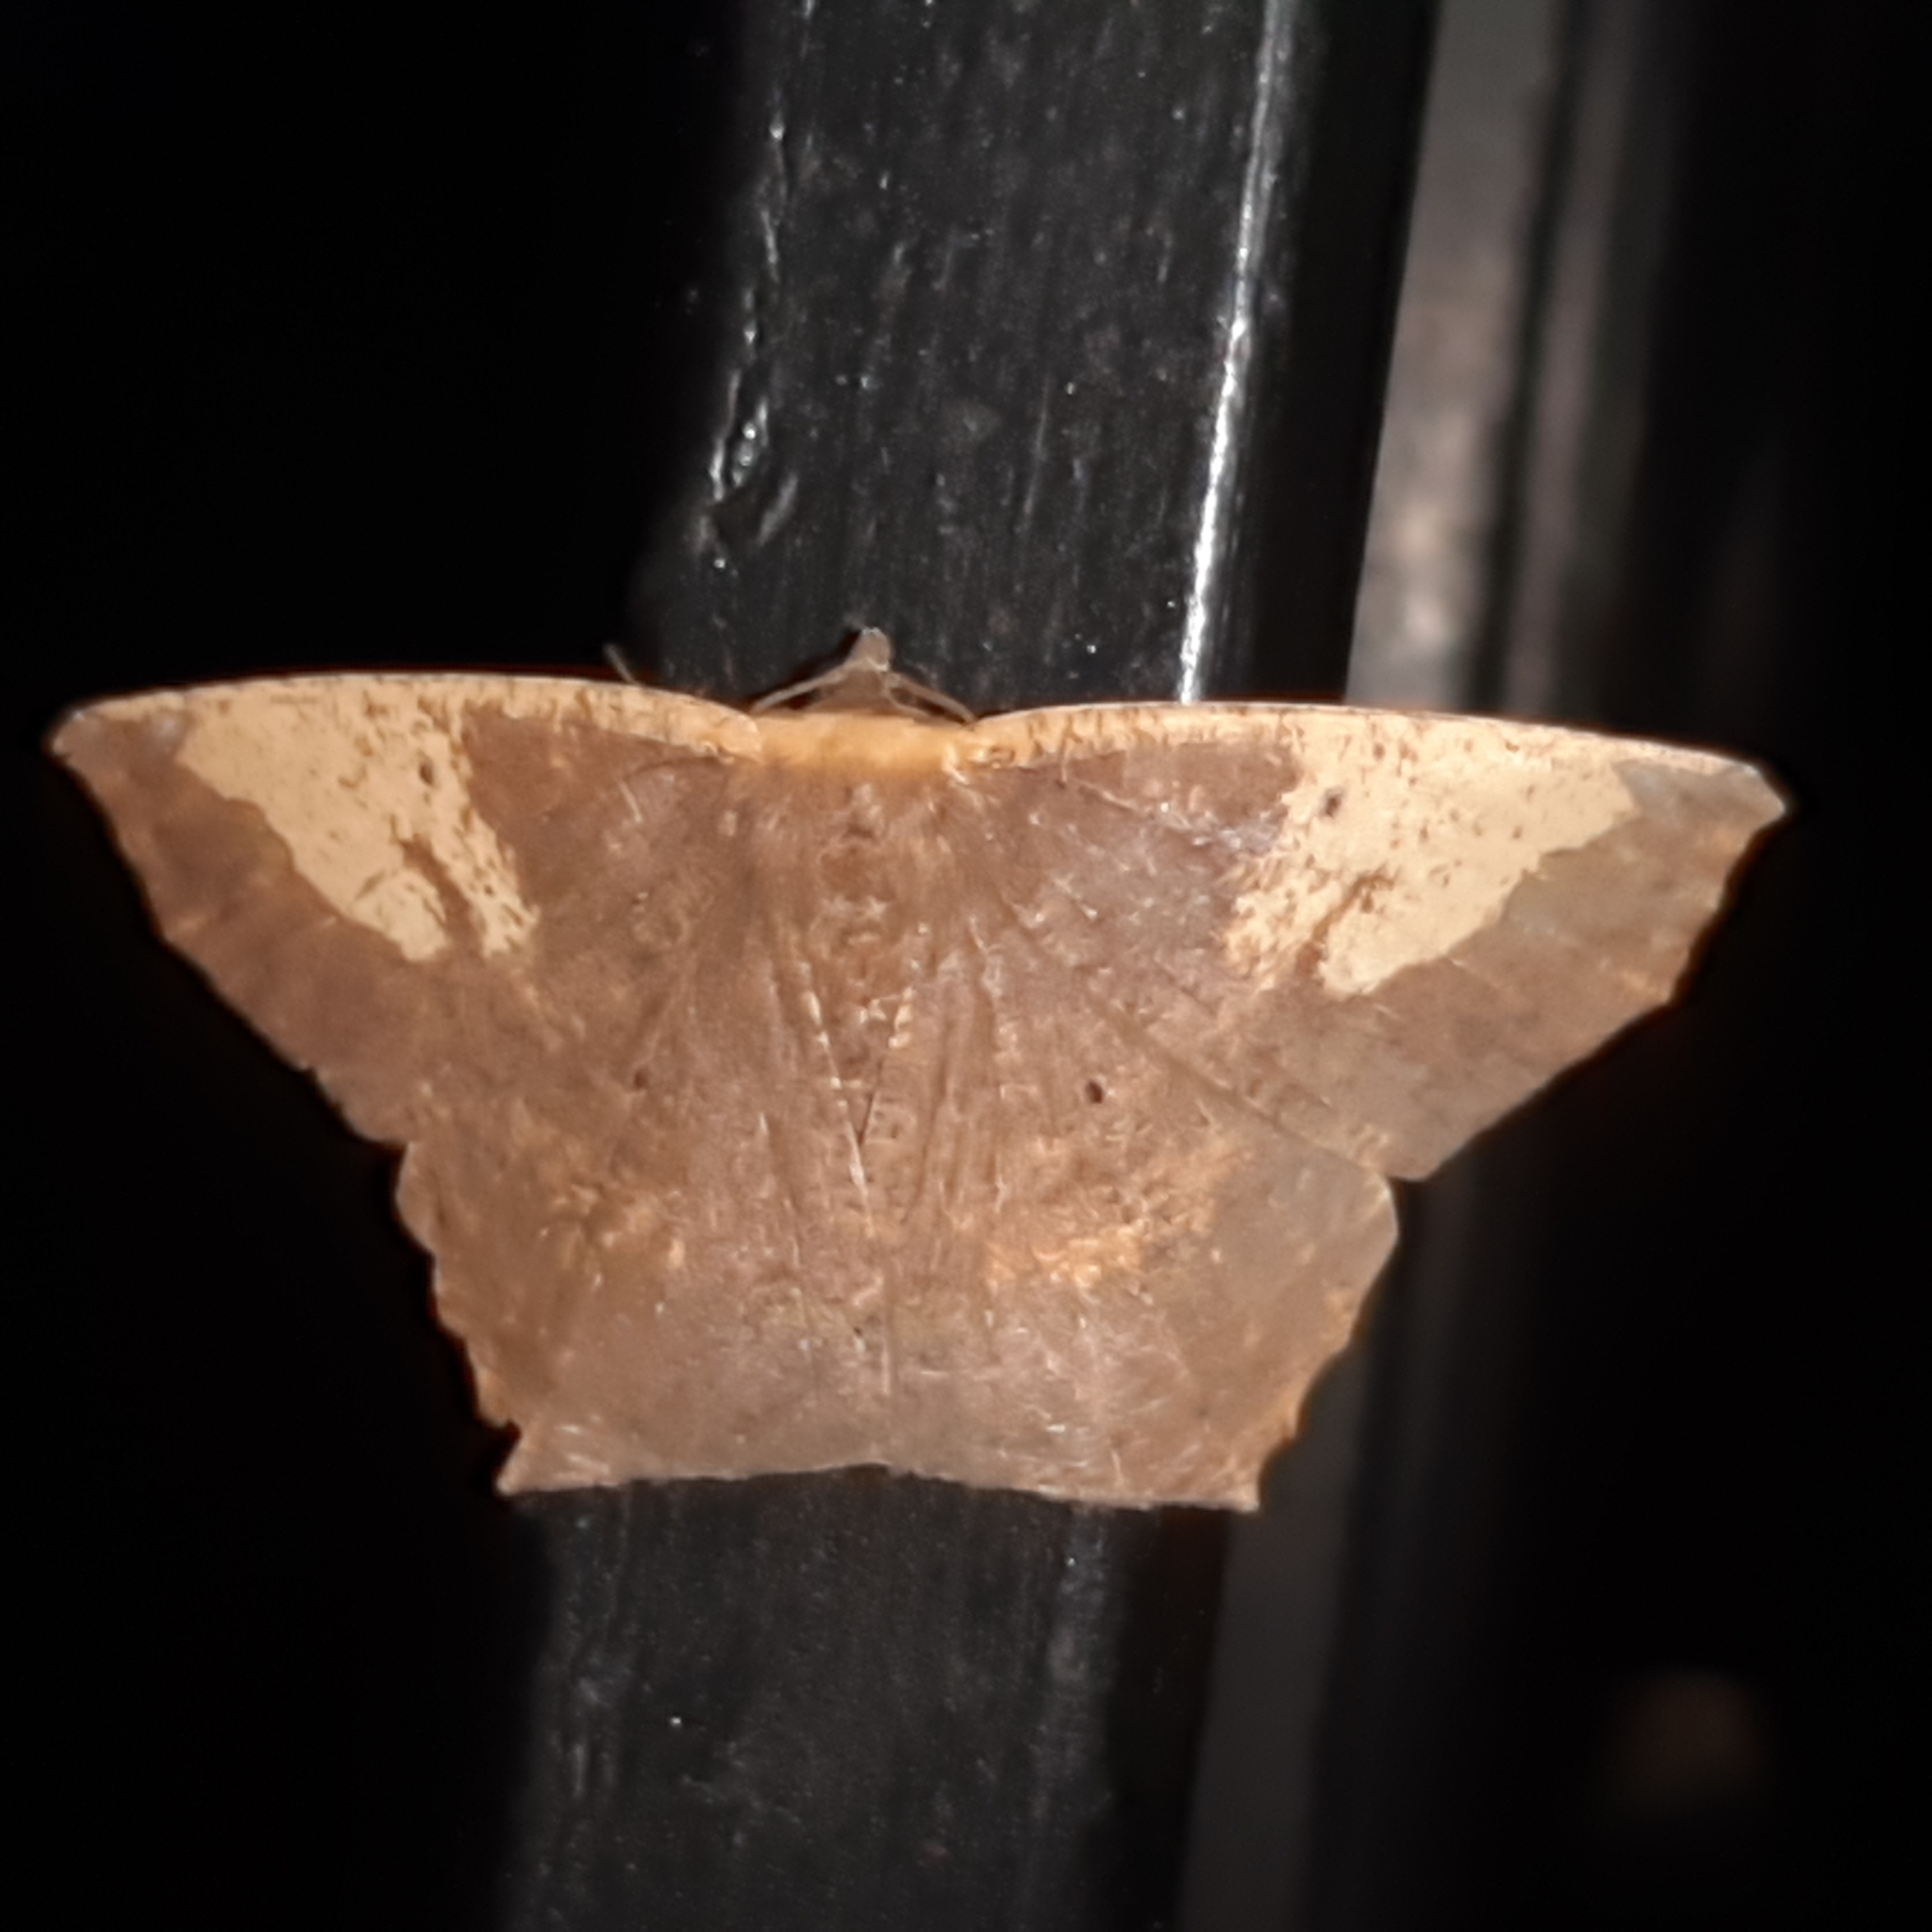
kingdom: Animalia
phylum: Arthropoda
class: Insecta
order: Lepidoptera
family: Geometridae
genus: Paragonia
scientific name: Paragonia cruraria
